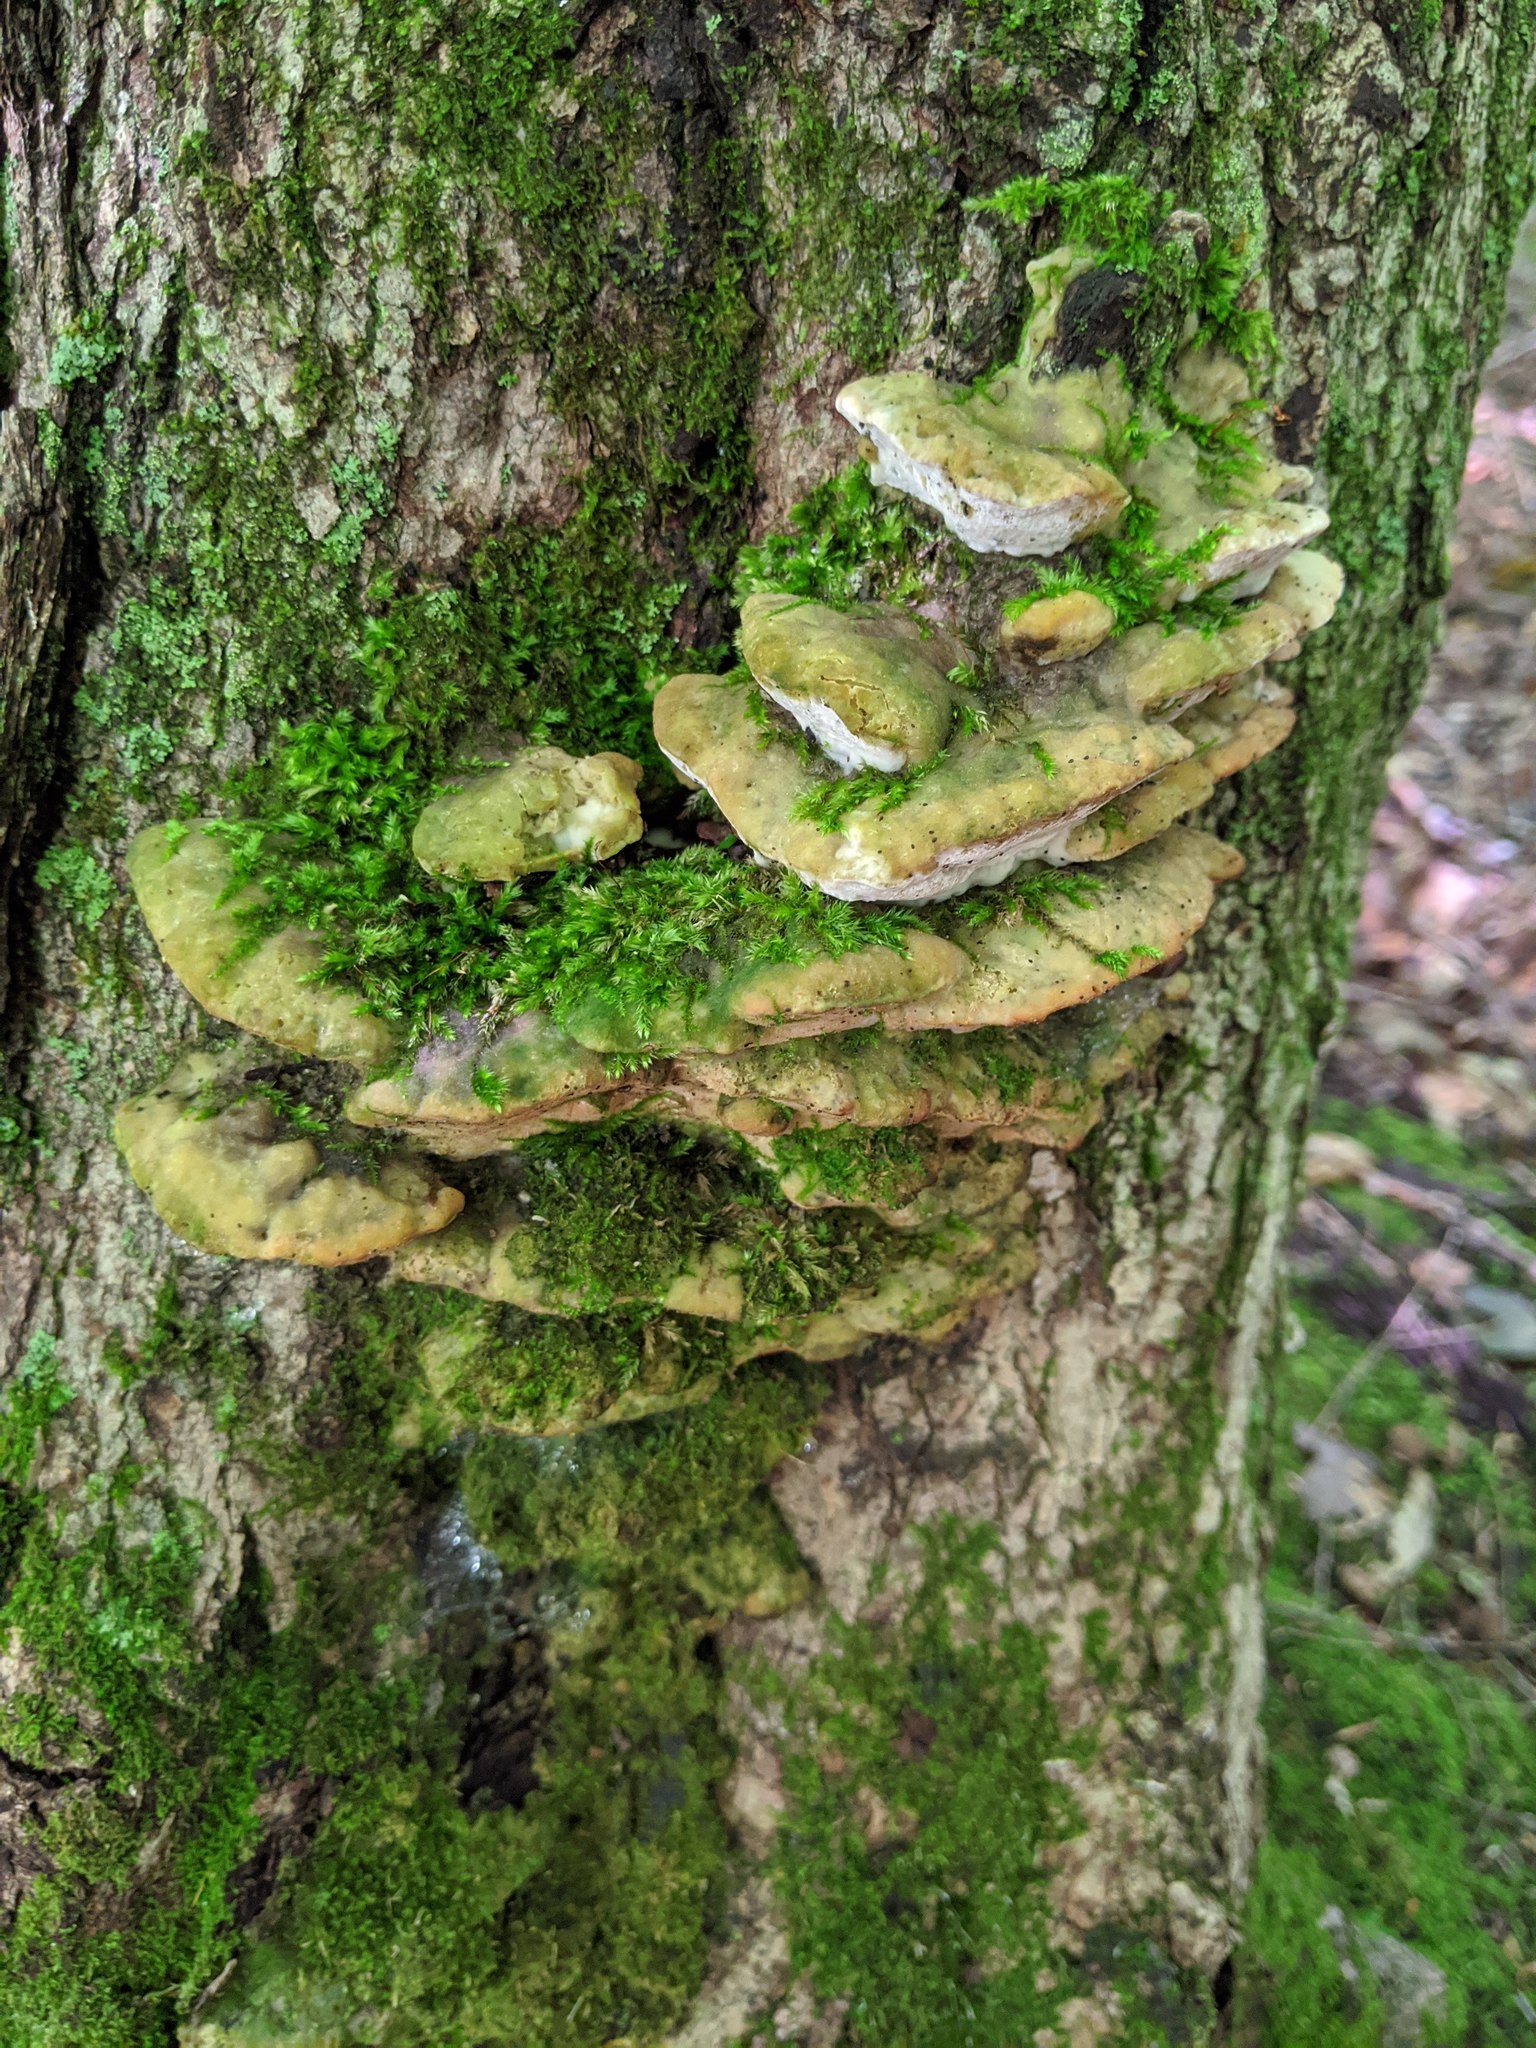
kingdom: Fungi
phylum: Basidiomycota
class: Agaricomycetes
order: Hymenochaetales
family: Oxyporaceae
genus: Oxyporus
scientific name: Oxyporus populinus
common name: Poplar bracket
